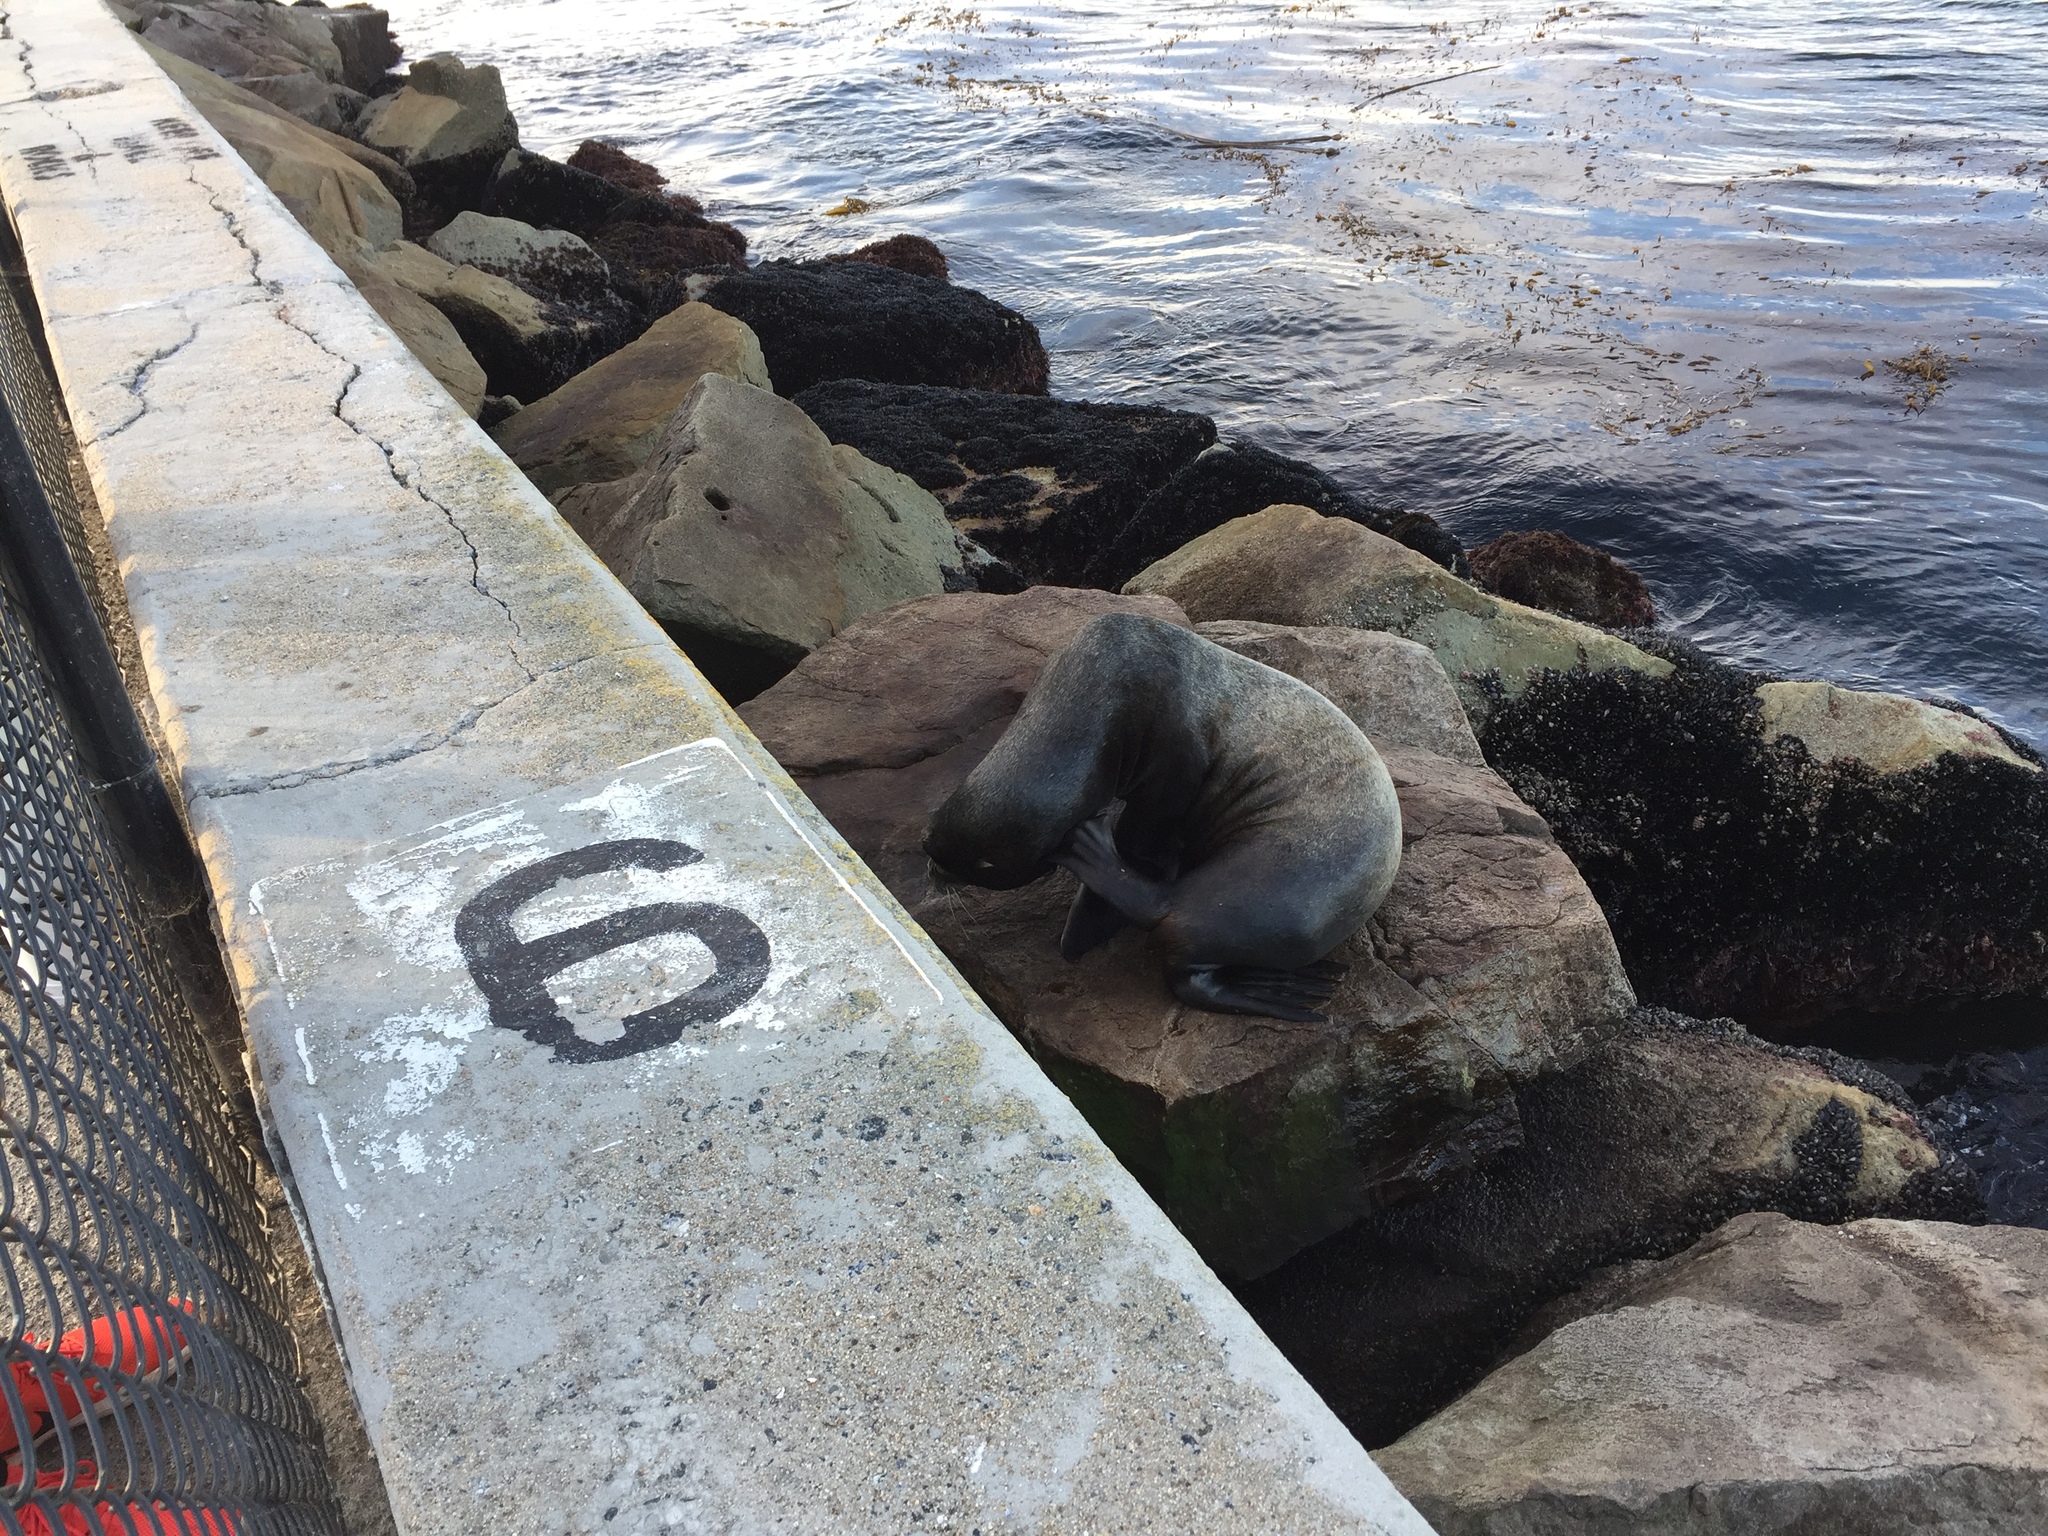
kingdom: Animalia
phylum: Chordata
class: Mammalia
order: Carnivora
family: Otariidae
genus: Zalophus
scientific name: Zalophus californianus
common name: California sea lion
